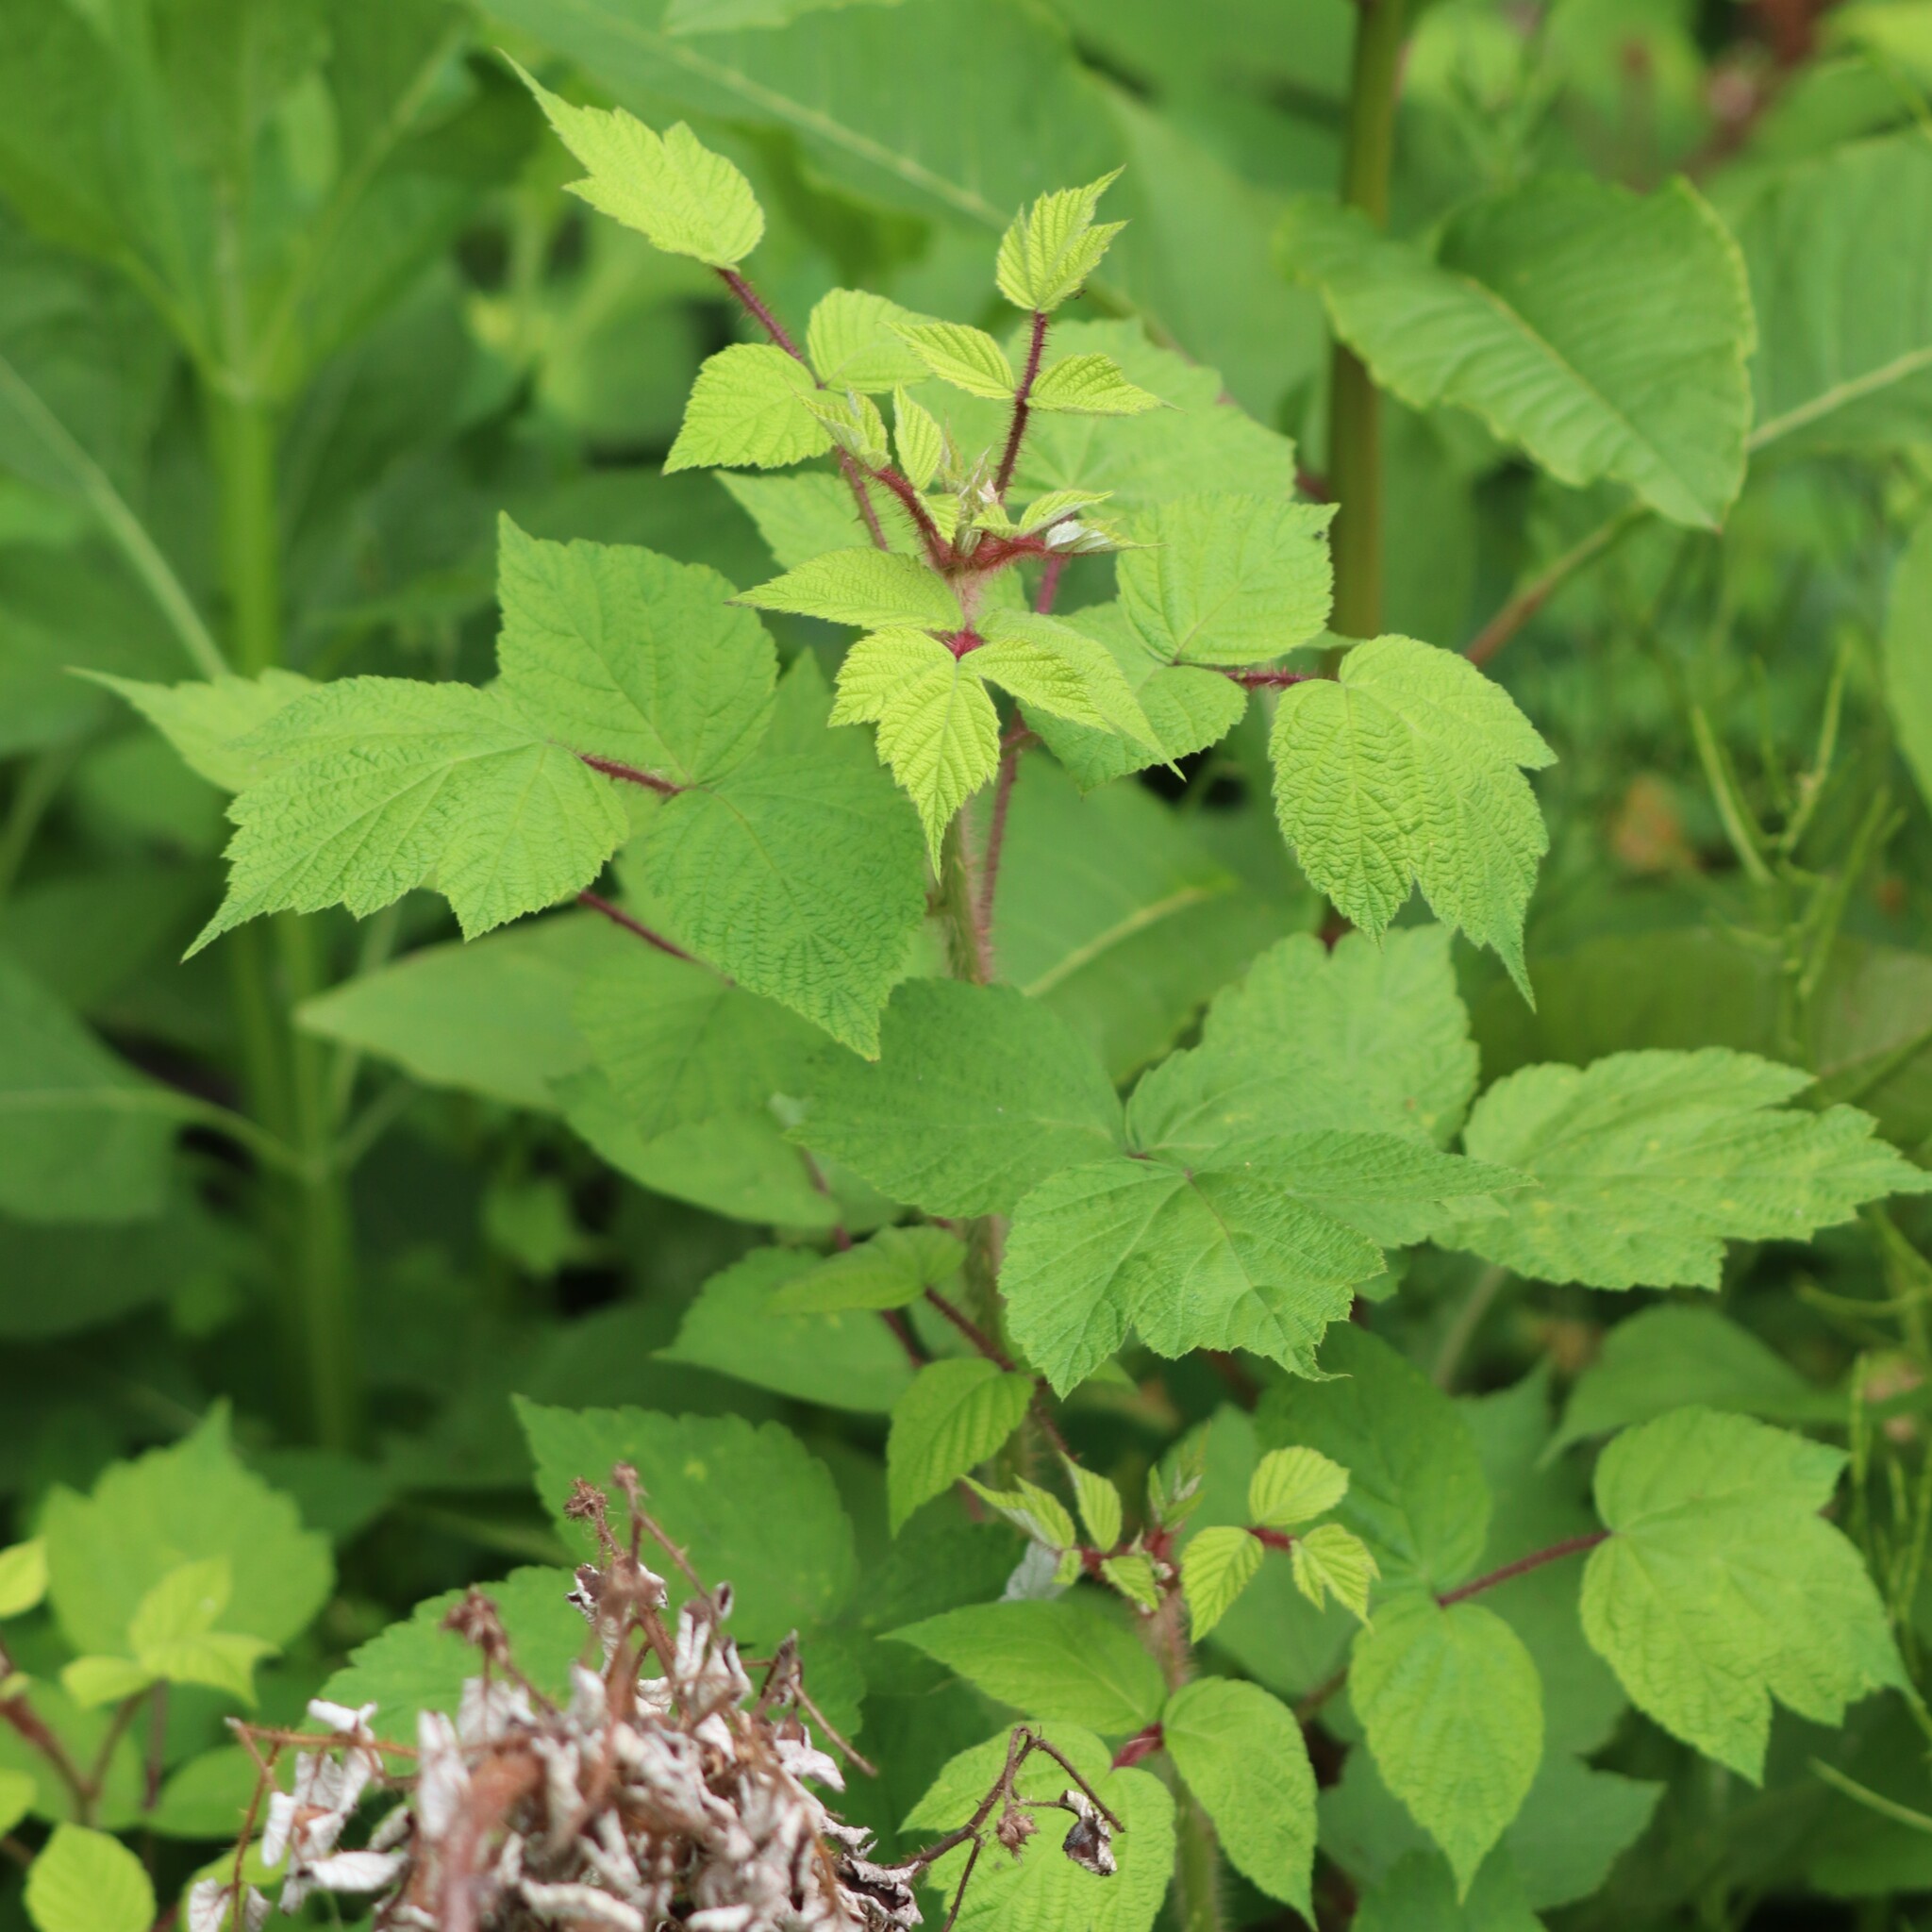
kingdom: Plantae
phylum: Tracheophyta
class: Magnoliopsida
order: Rosales
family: Rosaceae
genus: Rubus
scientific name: Rubus phoenicolasius
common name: Japanese wineberry
